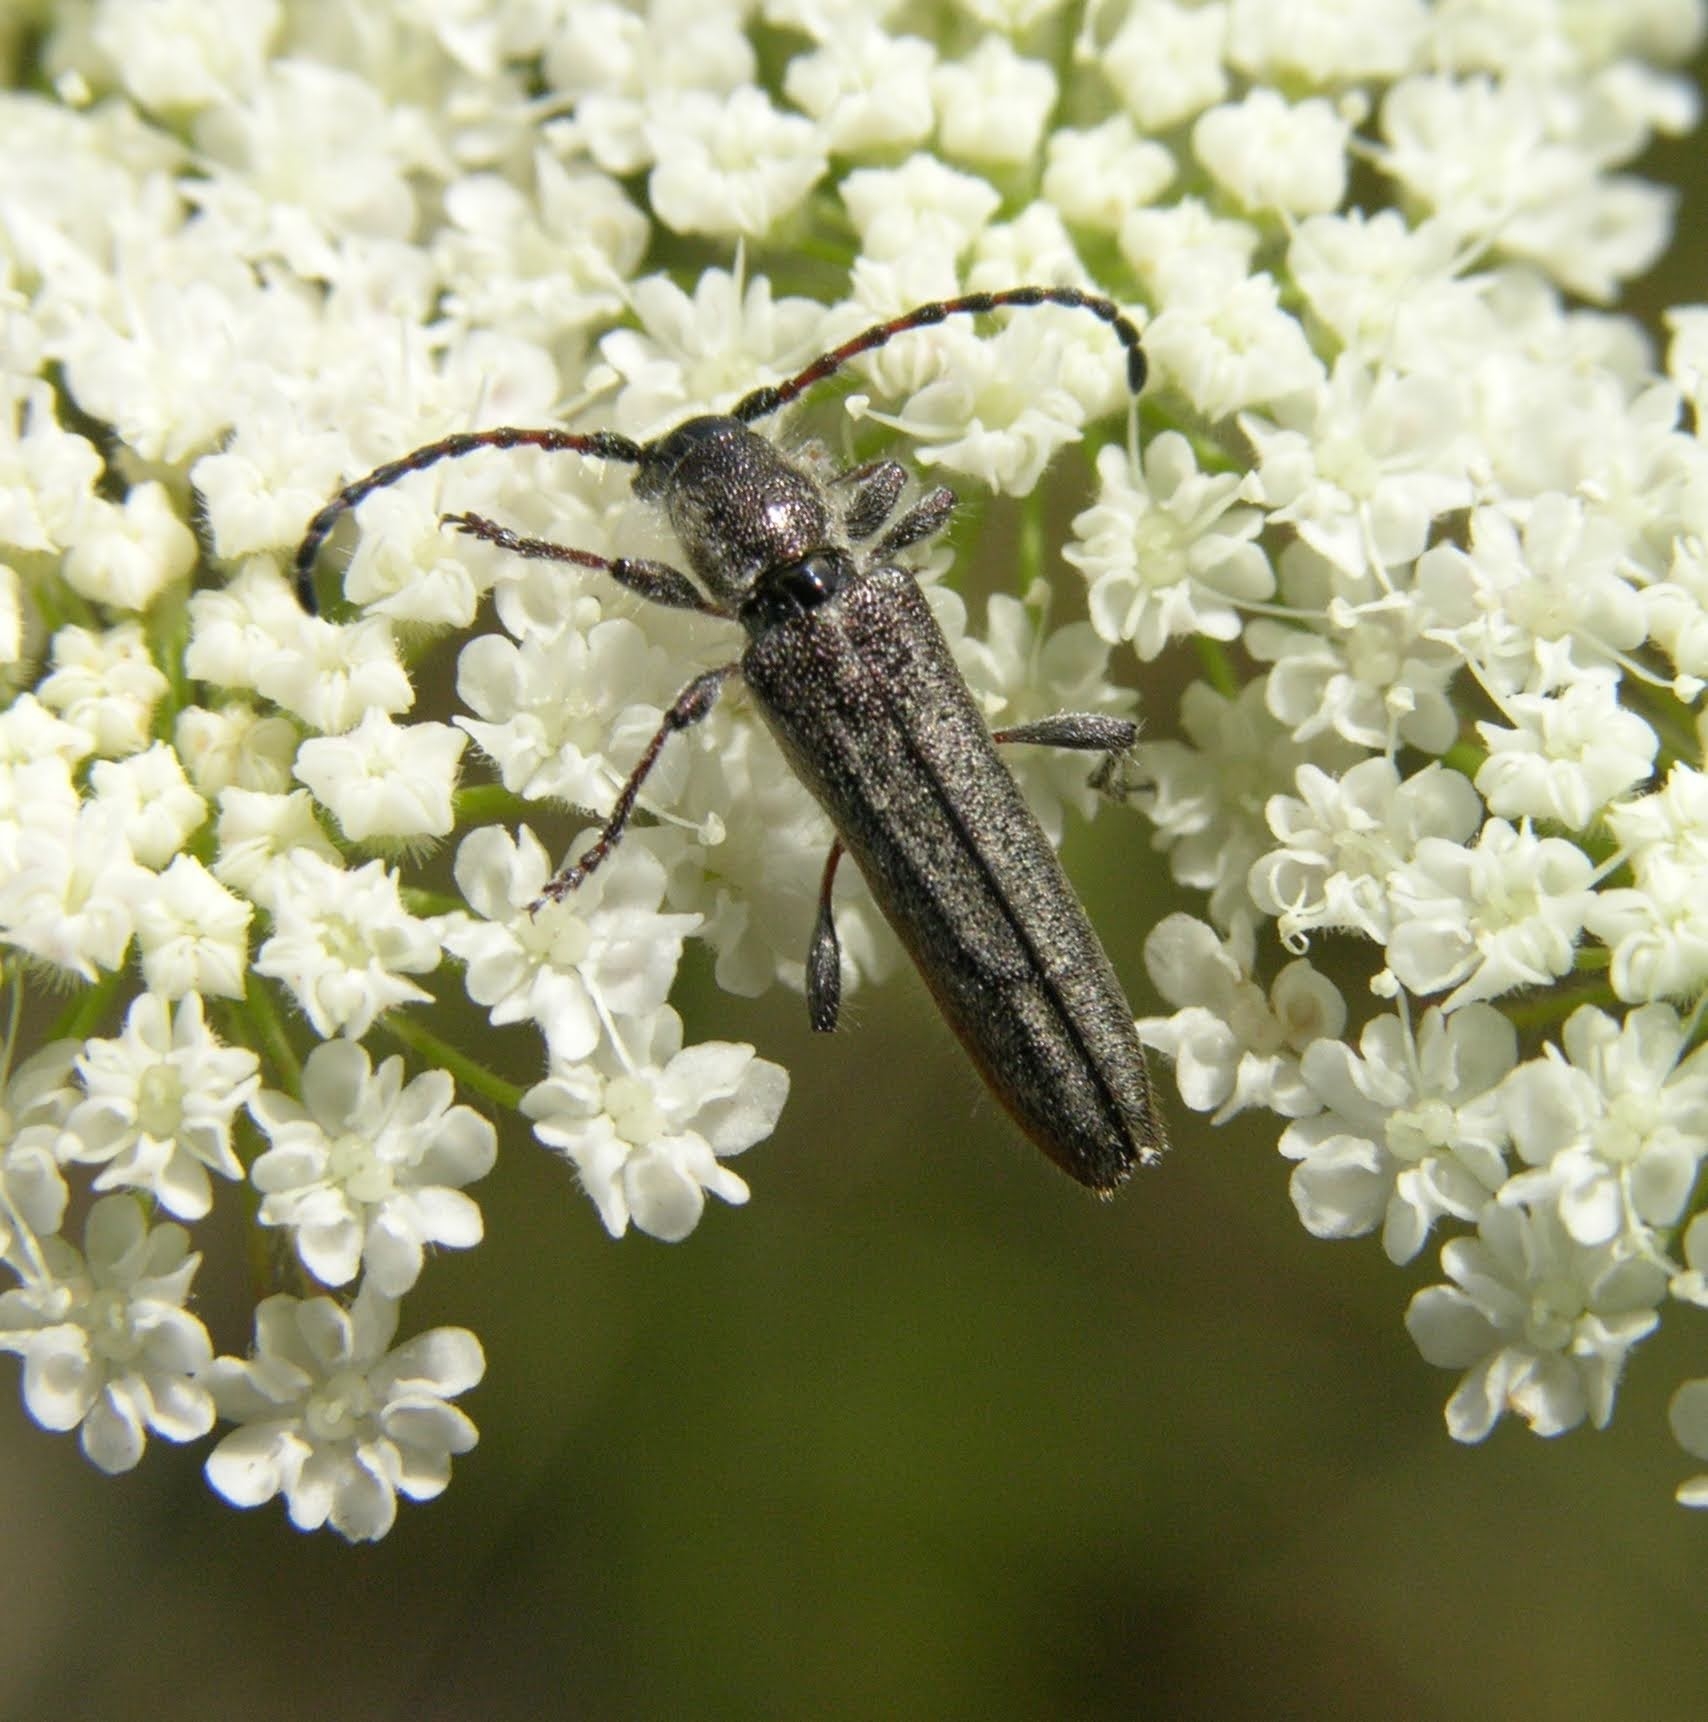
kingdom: Animalia
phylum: Arthropoda
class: Insecta
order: Coleoptera
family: Cerambycidae
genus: Deilus
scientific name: Deilus fugax
